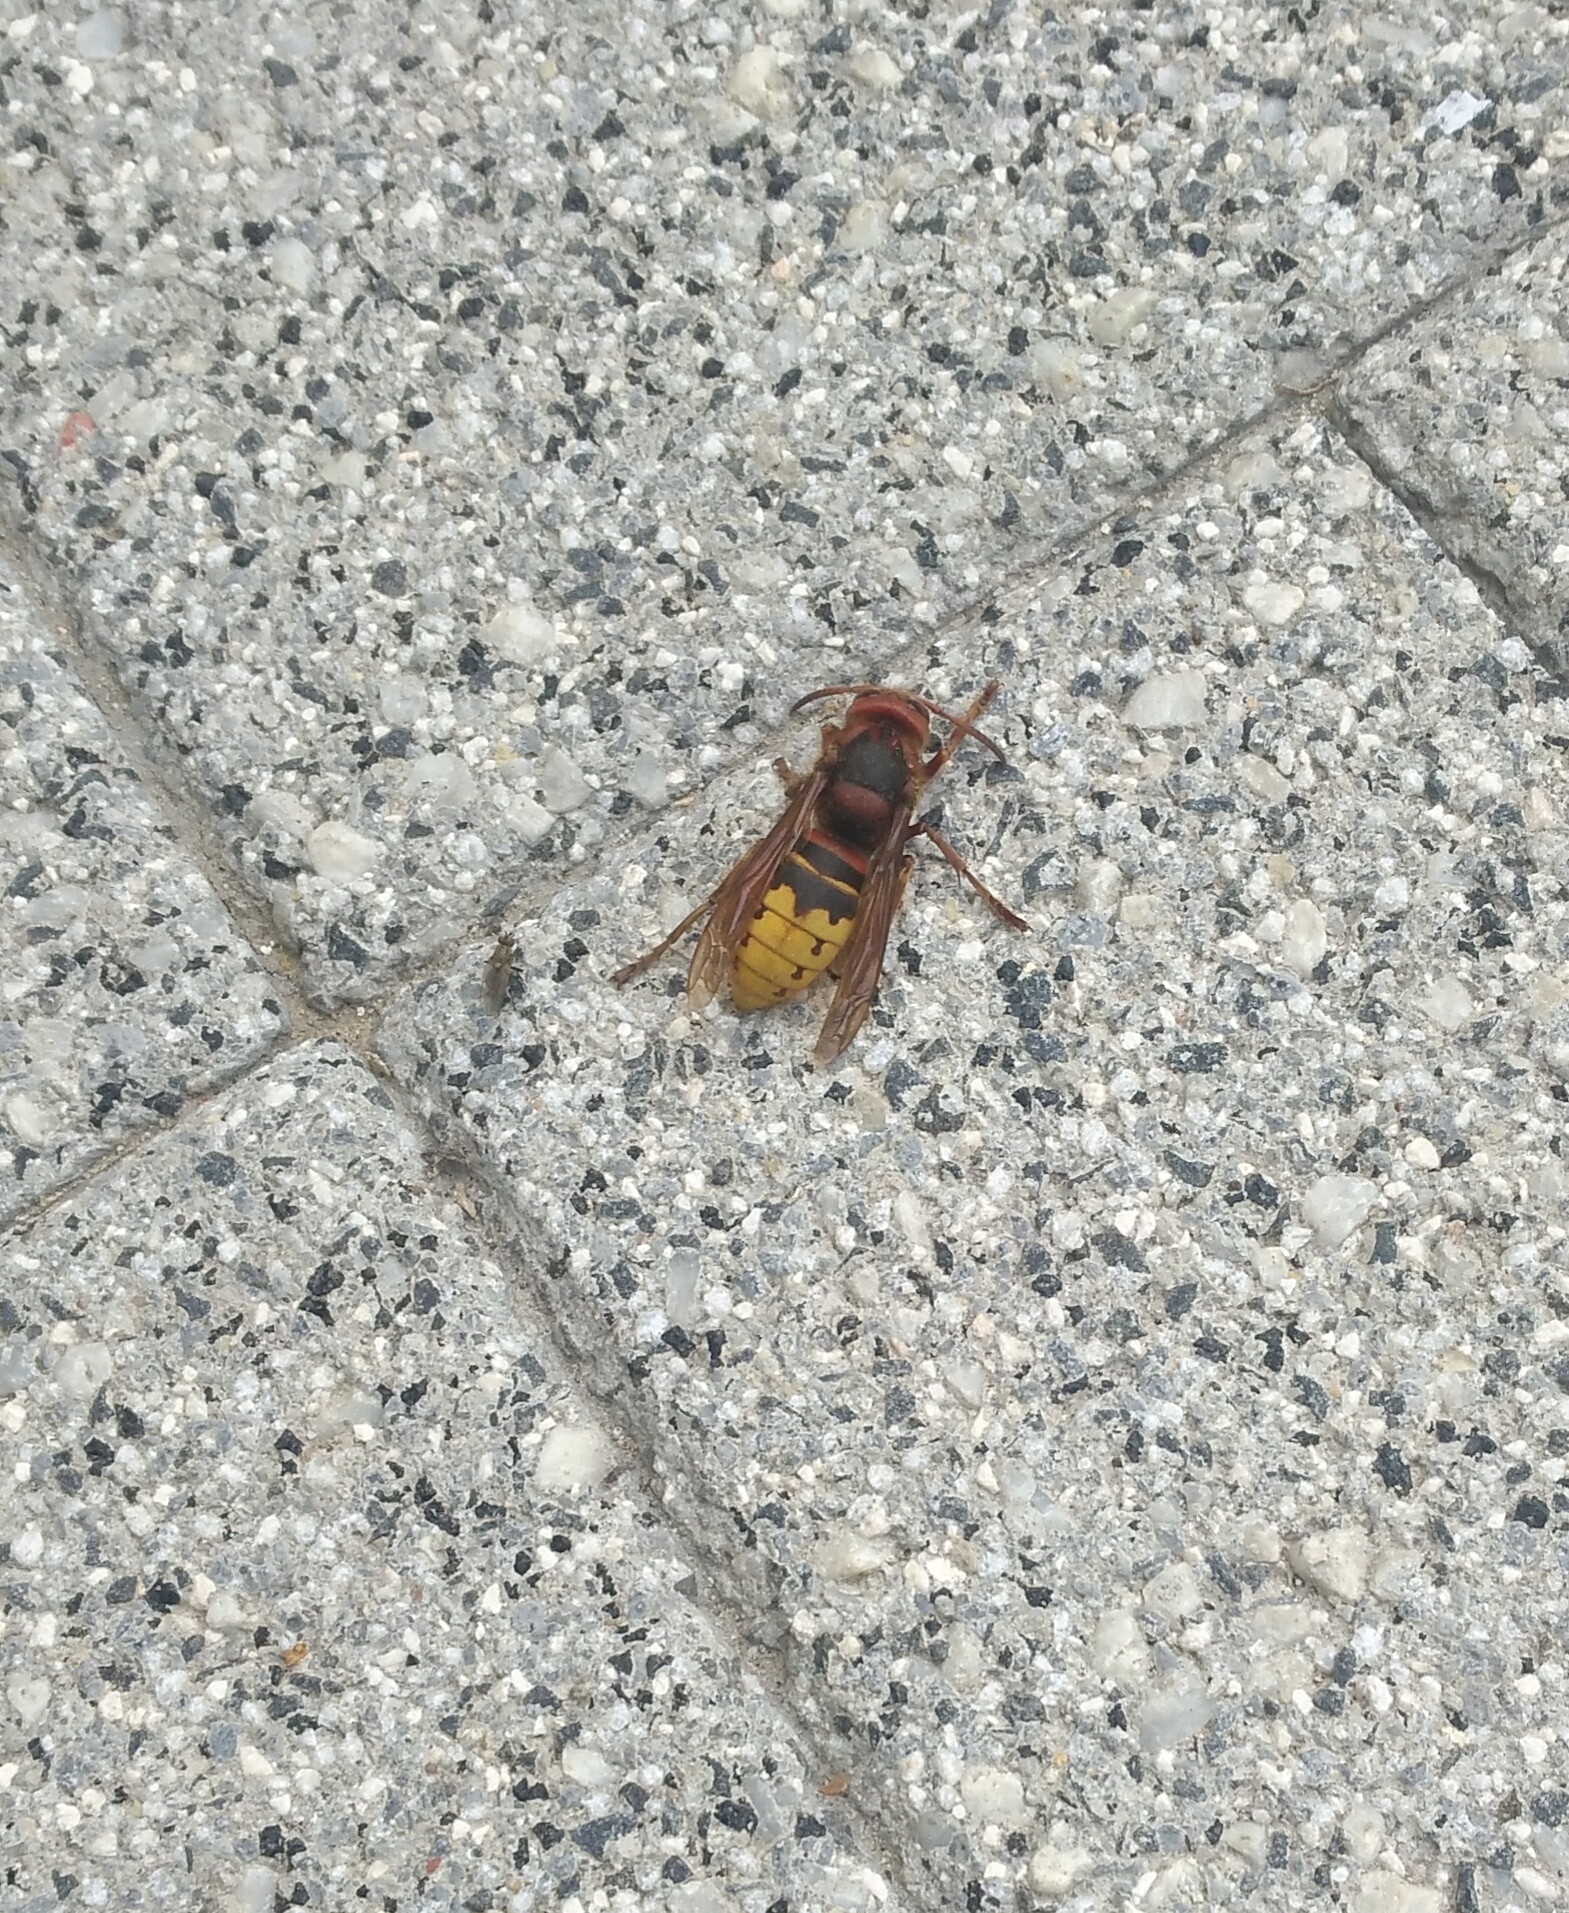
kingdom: Animalia
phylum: Arthropoda
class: Insecta
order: Hymenoptera
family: Vespidae
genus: Vespa
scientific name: Vespa crabro
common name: Hornet
